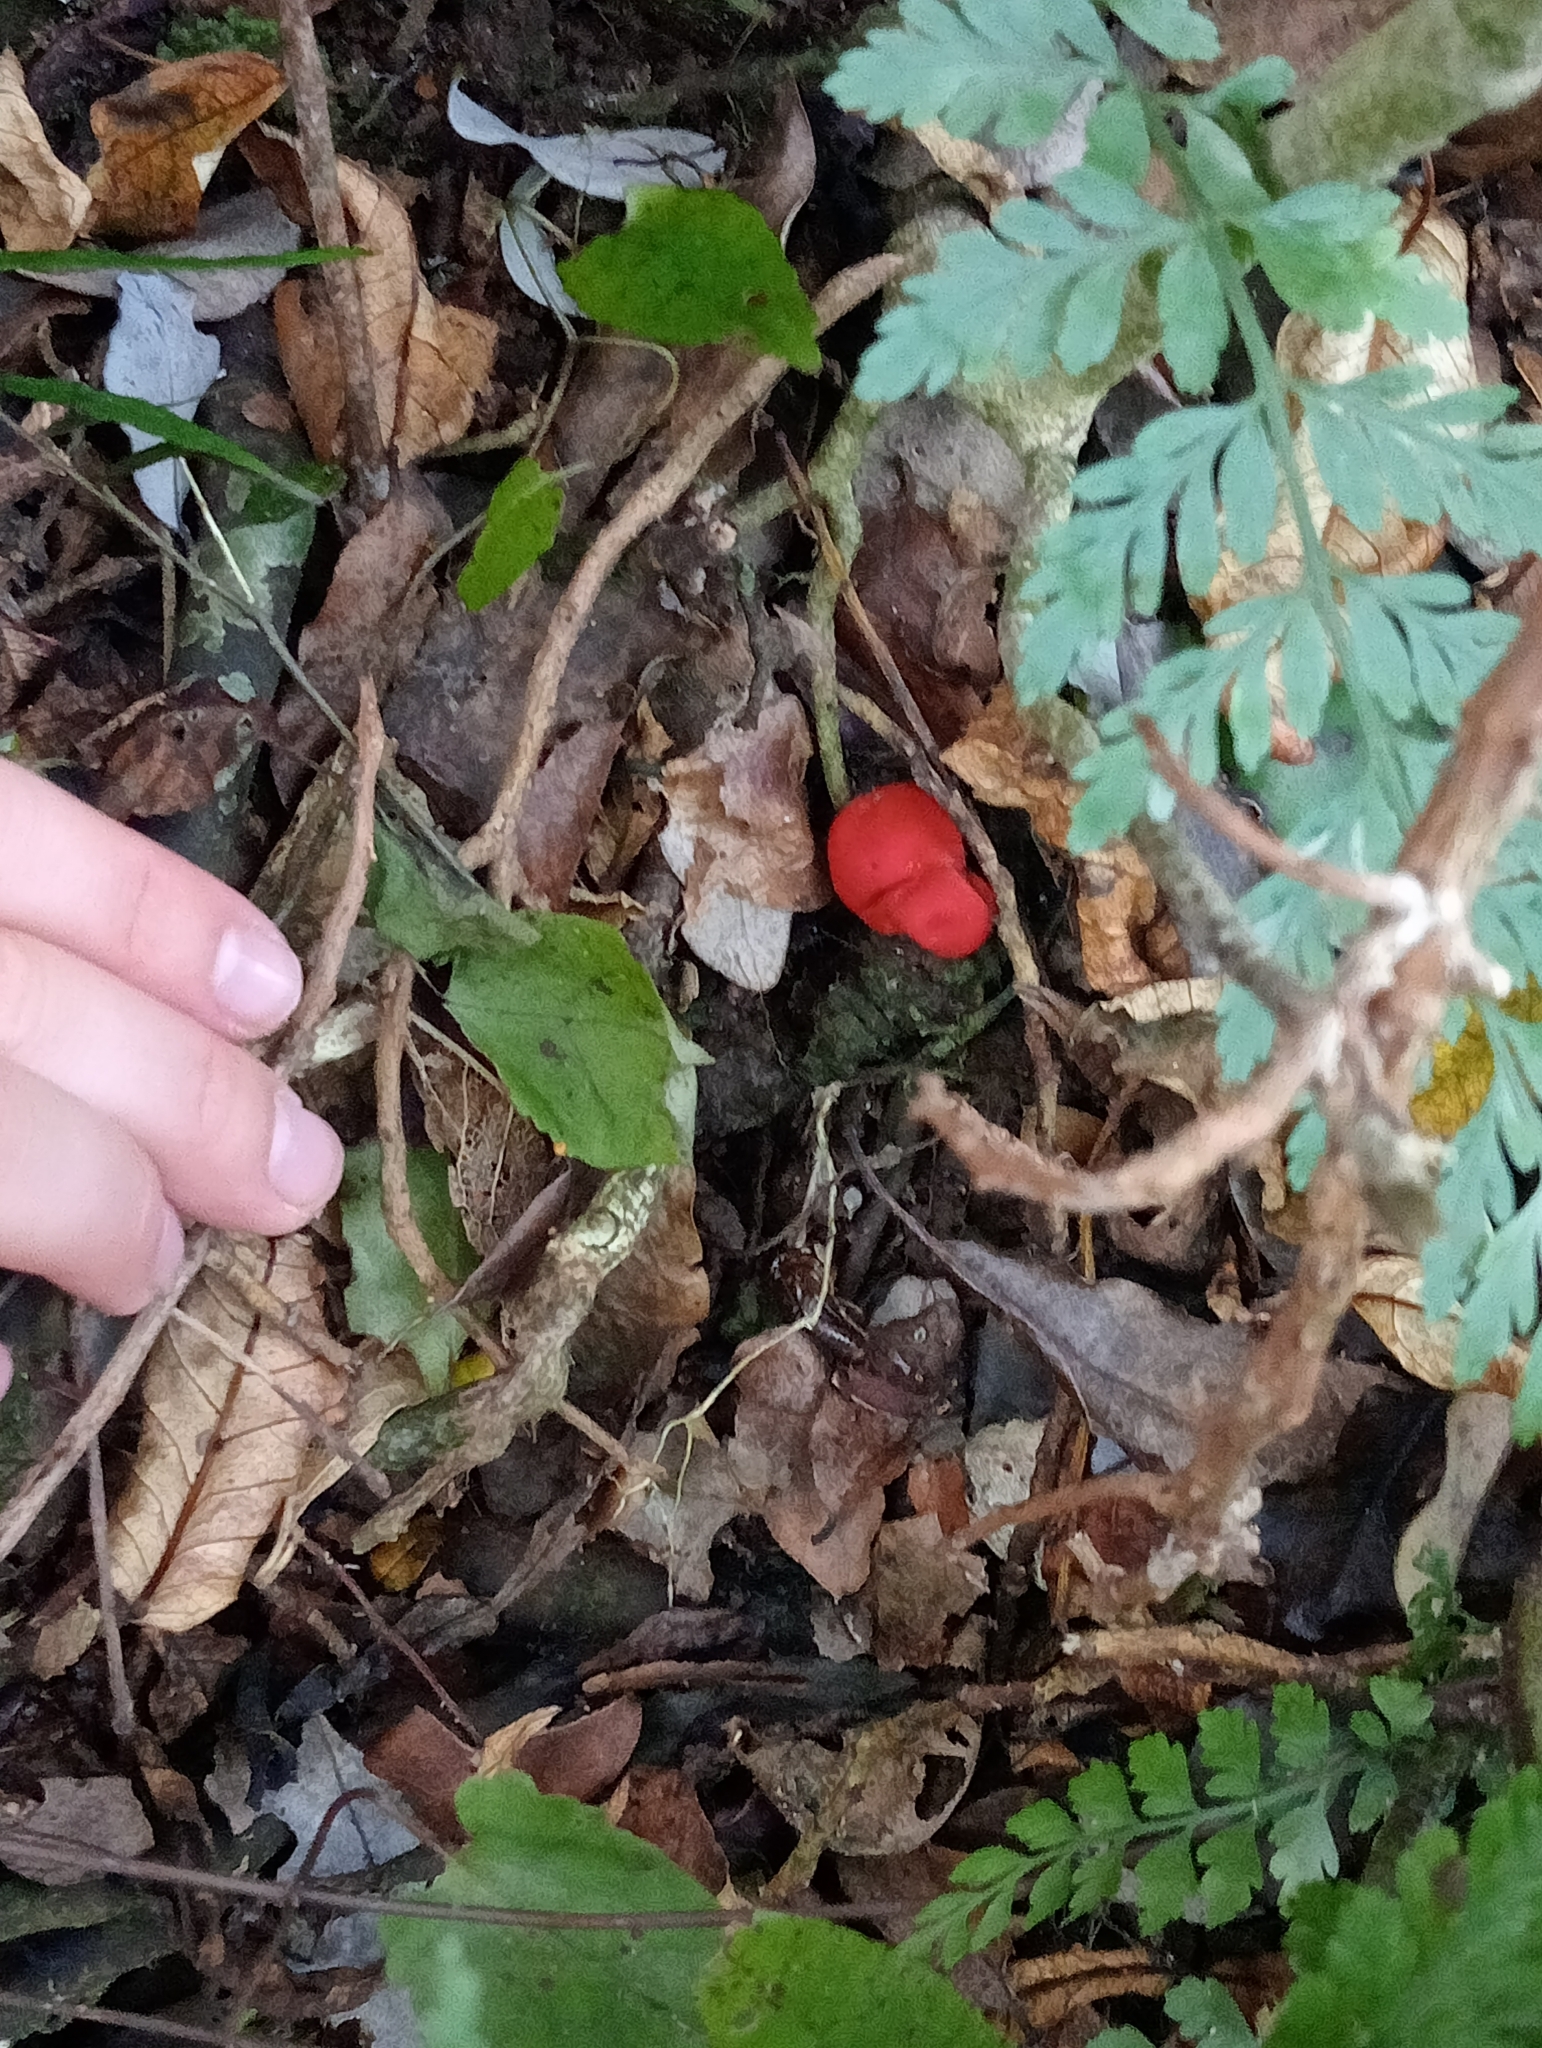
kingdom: Fungi
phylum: Ascomycota
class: Pezizomycetes
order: Pezizales
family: Pyronemataceae
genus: Paurocotylis
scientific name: Paurocotylis pila
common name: Scarlet berry truffle
